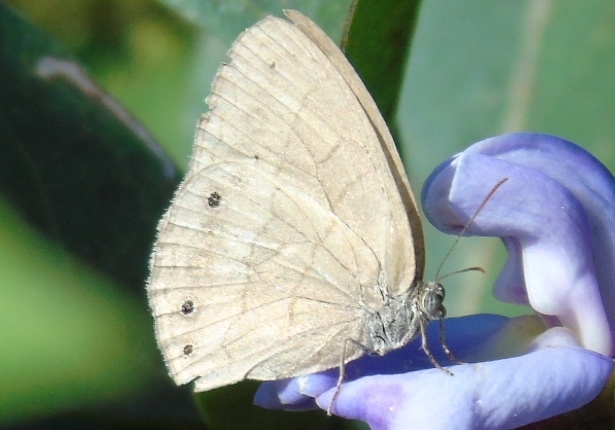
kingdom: Animalia
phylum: Arthropoda
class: Insecta
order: Lepidoptera
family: Nymphalidae
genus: Hermeuptychia
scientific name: Hermeuptychia
